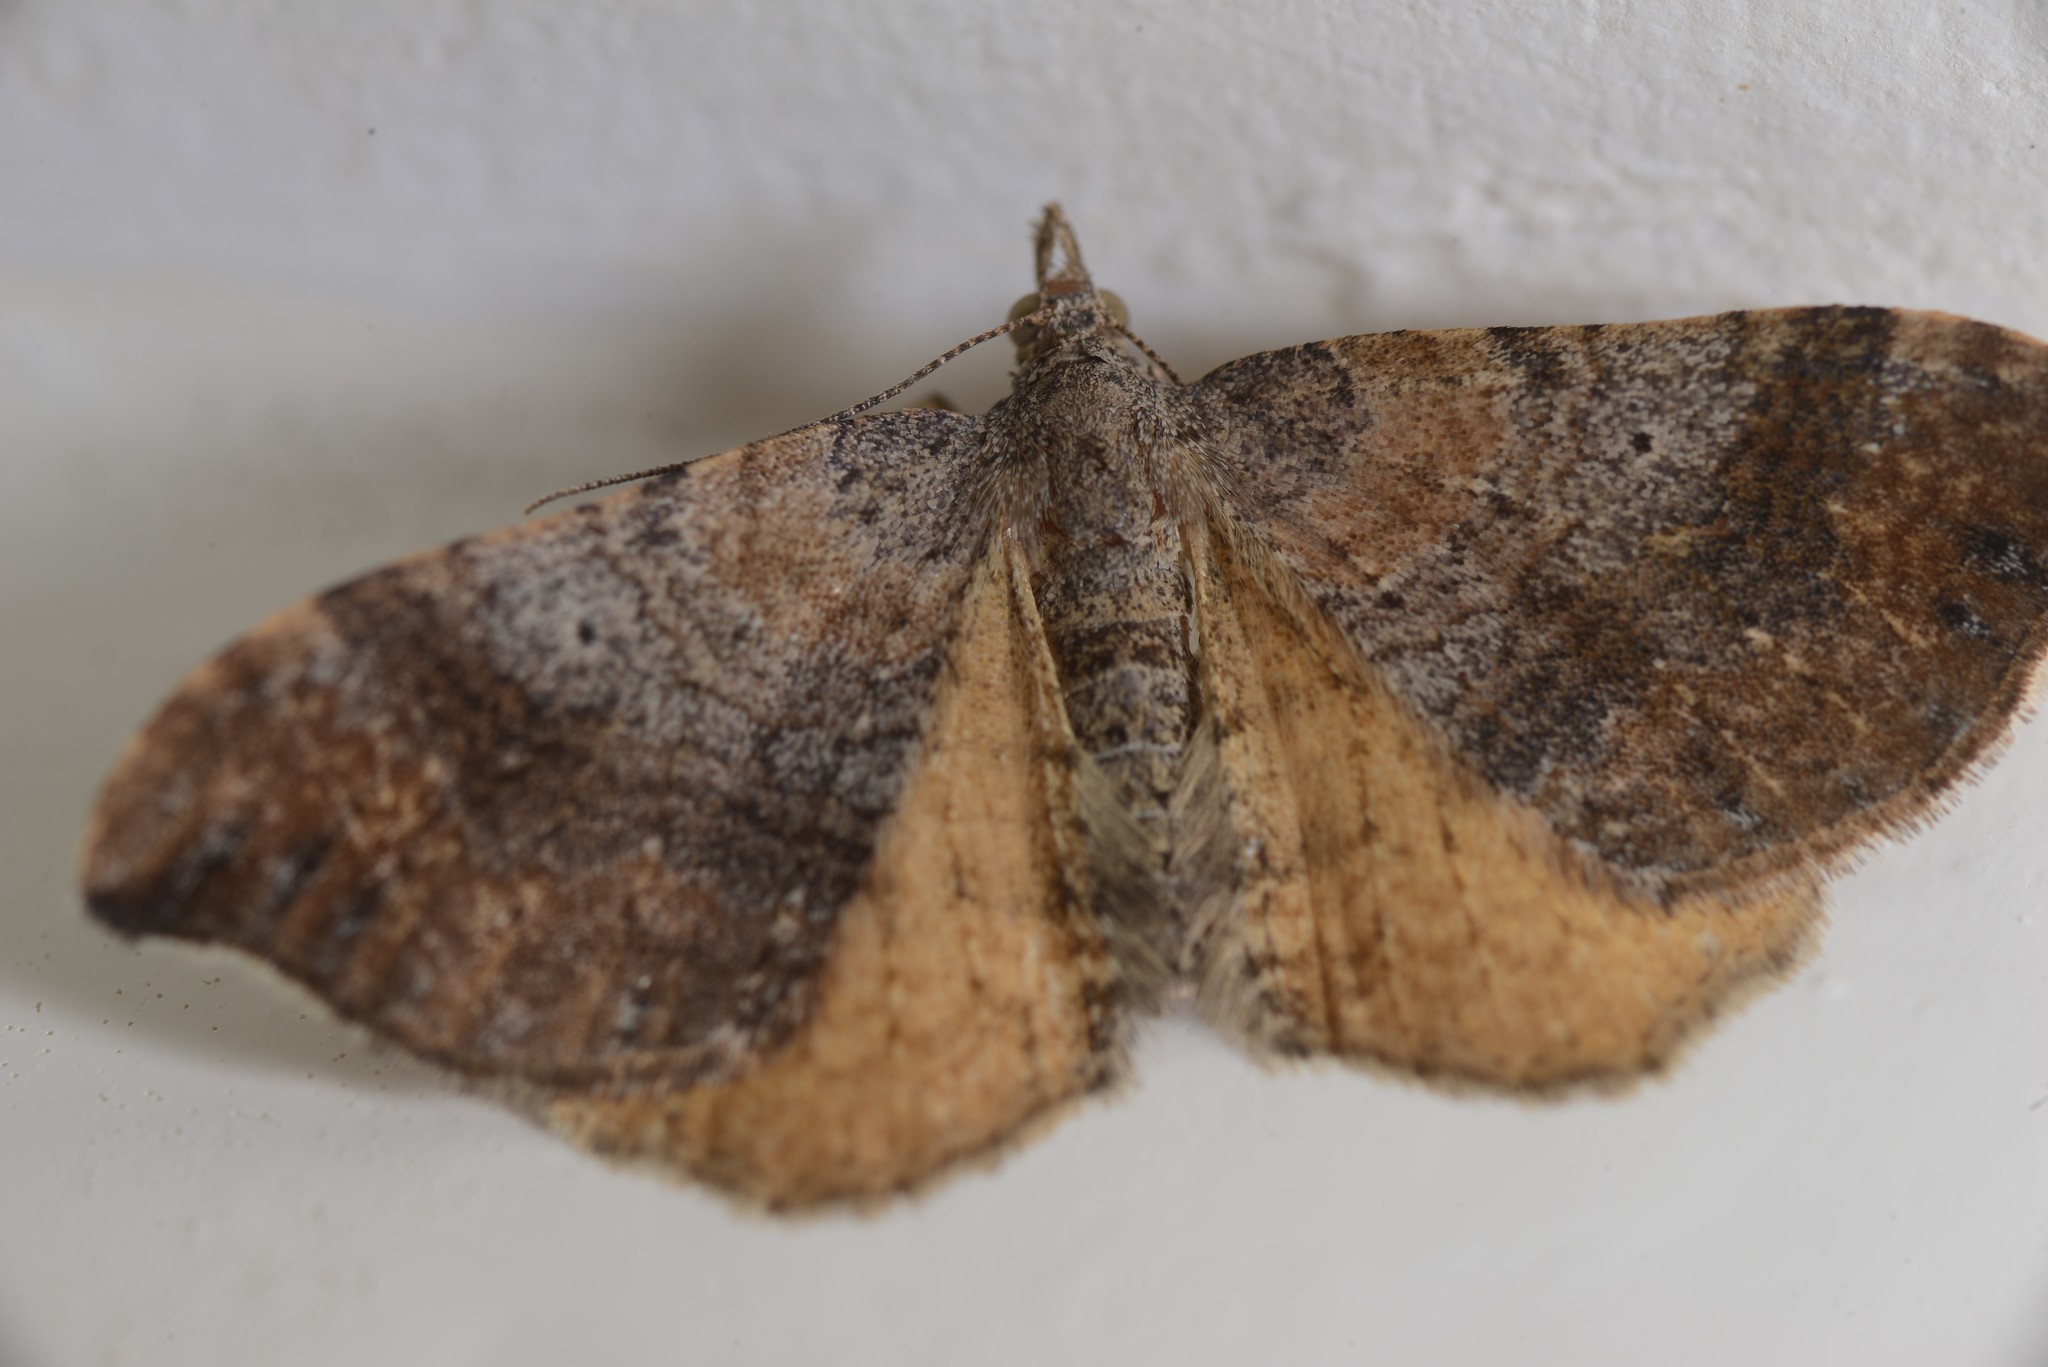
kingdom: Animalia
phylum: Arthropoda
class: Insecta
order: Lepidoptera
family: Geometridae
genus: Hydriomena
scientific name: Hydriomena deltoidata
